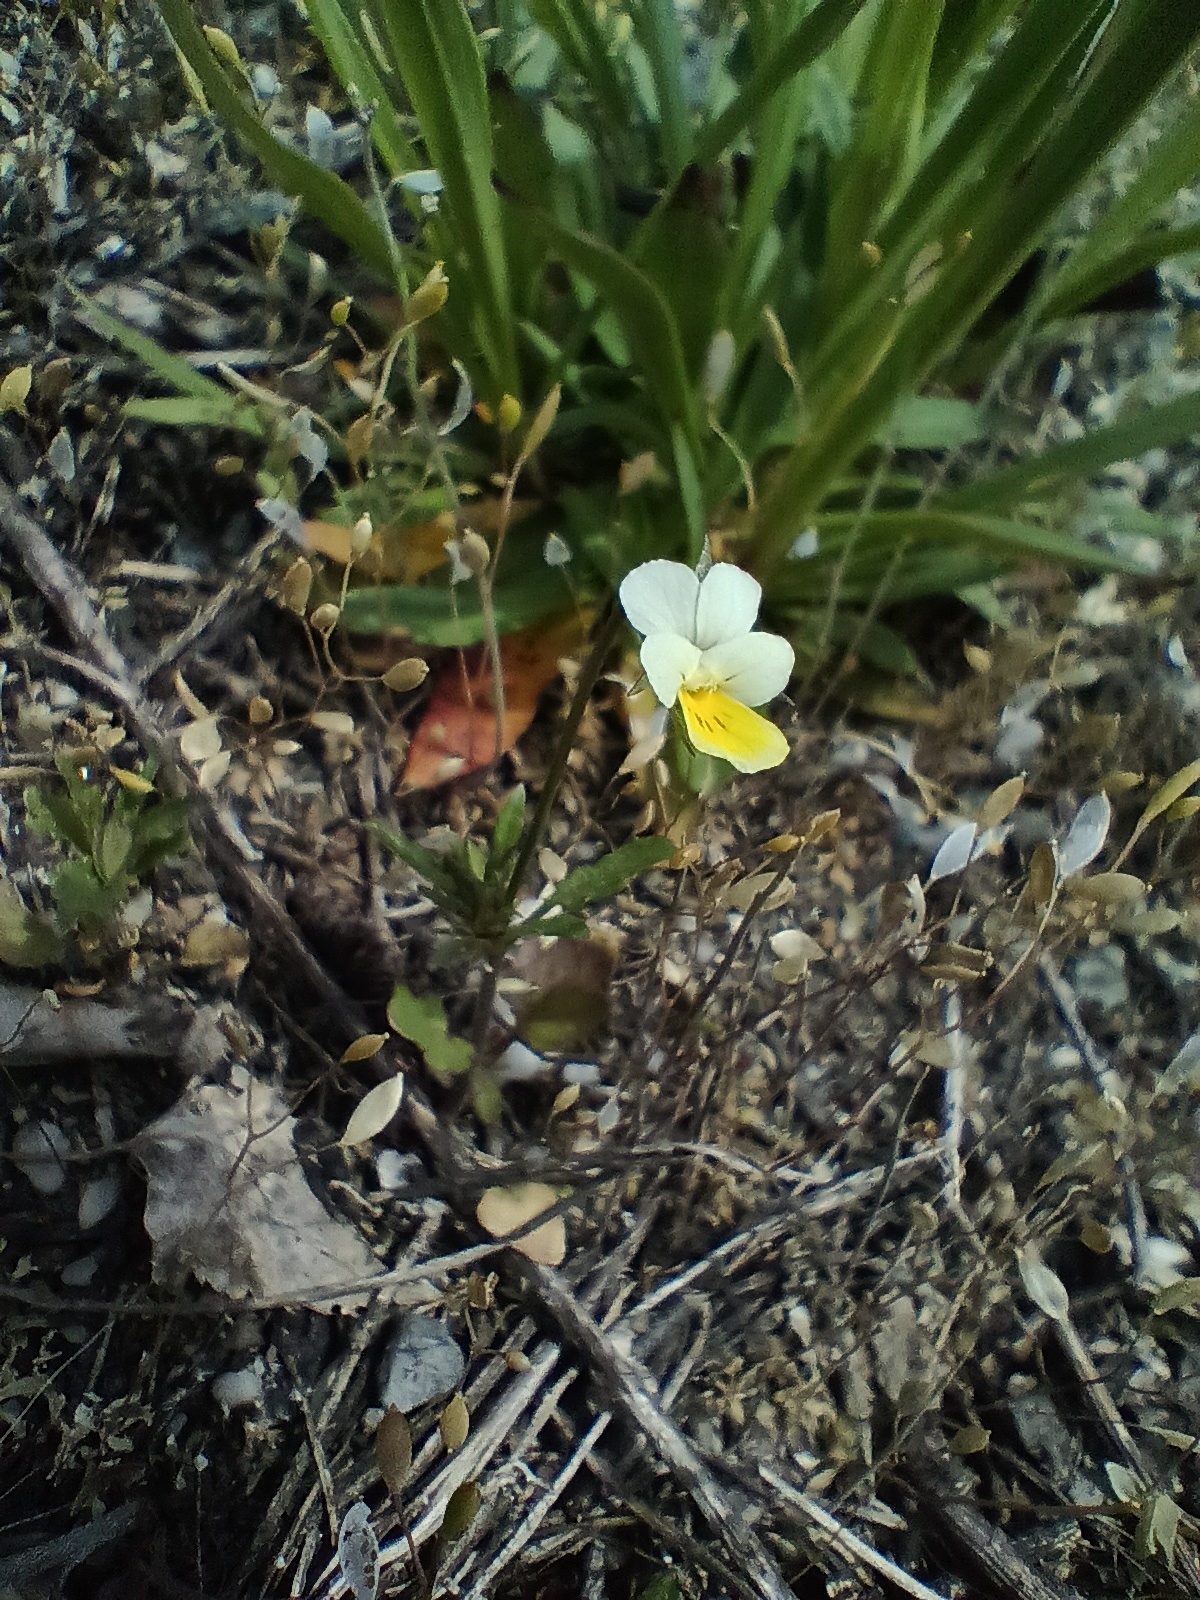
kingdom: Plantae
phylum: Tracheophyta
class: Magnoliopsida
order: Malpighiales
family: Violaceae
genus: Viola
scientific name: Viola arvensis
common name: Field pansy
